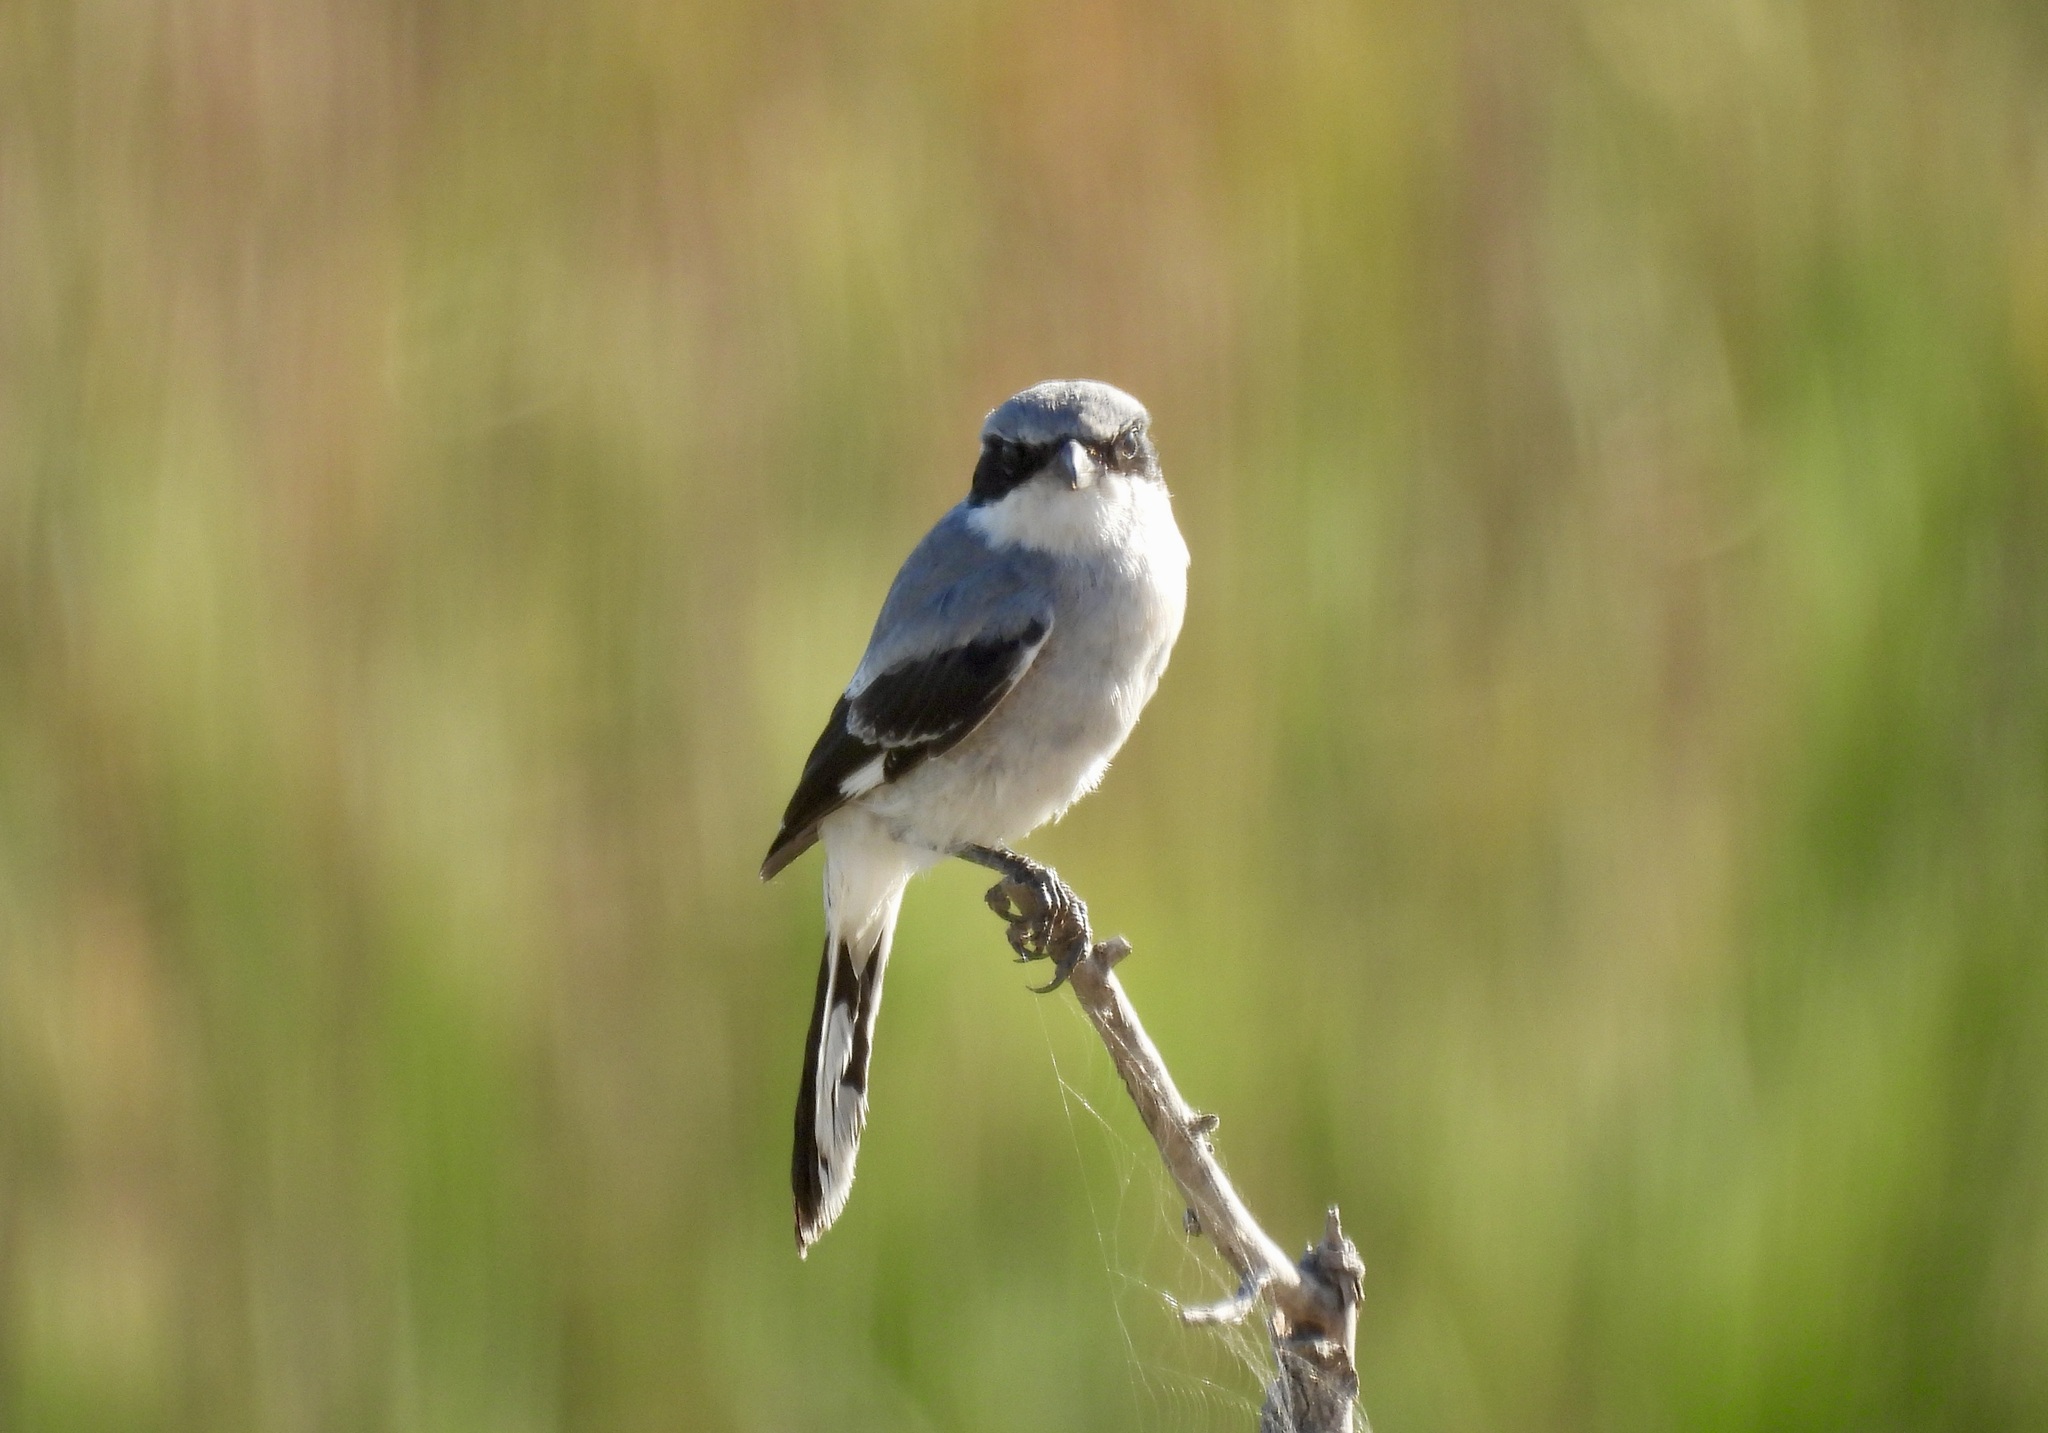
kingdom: Animalia
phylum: Chordata
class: Aves
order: Passeriformes
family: Laniidae
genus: Lanius
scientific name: Lanius ludovicianus
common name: Loggerhead shrike
